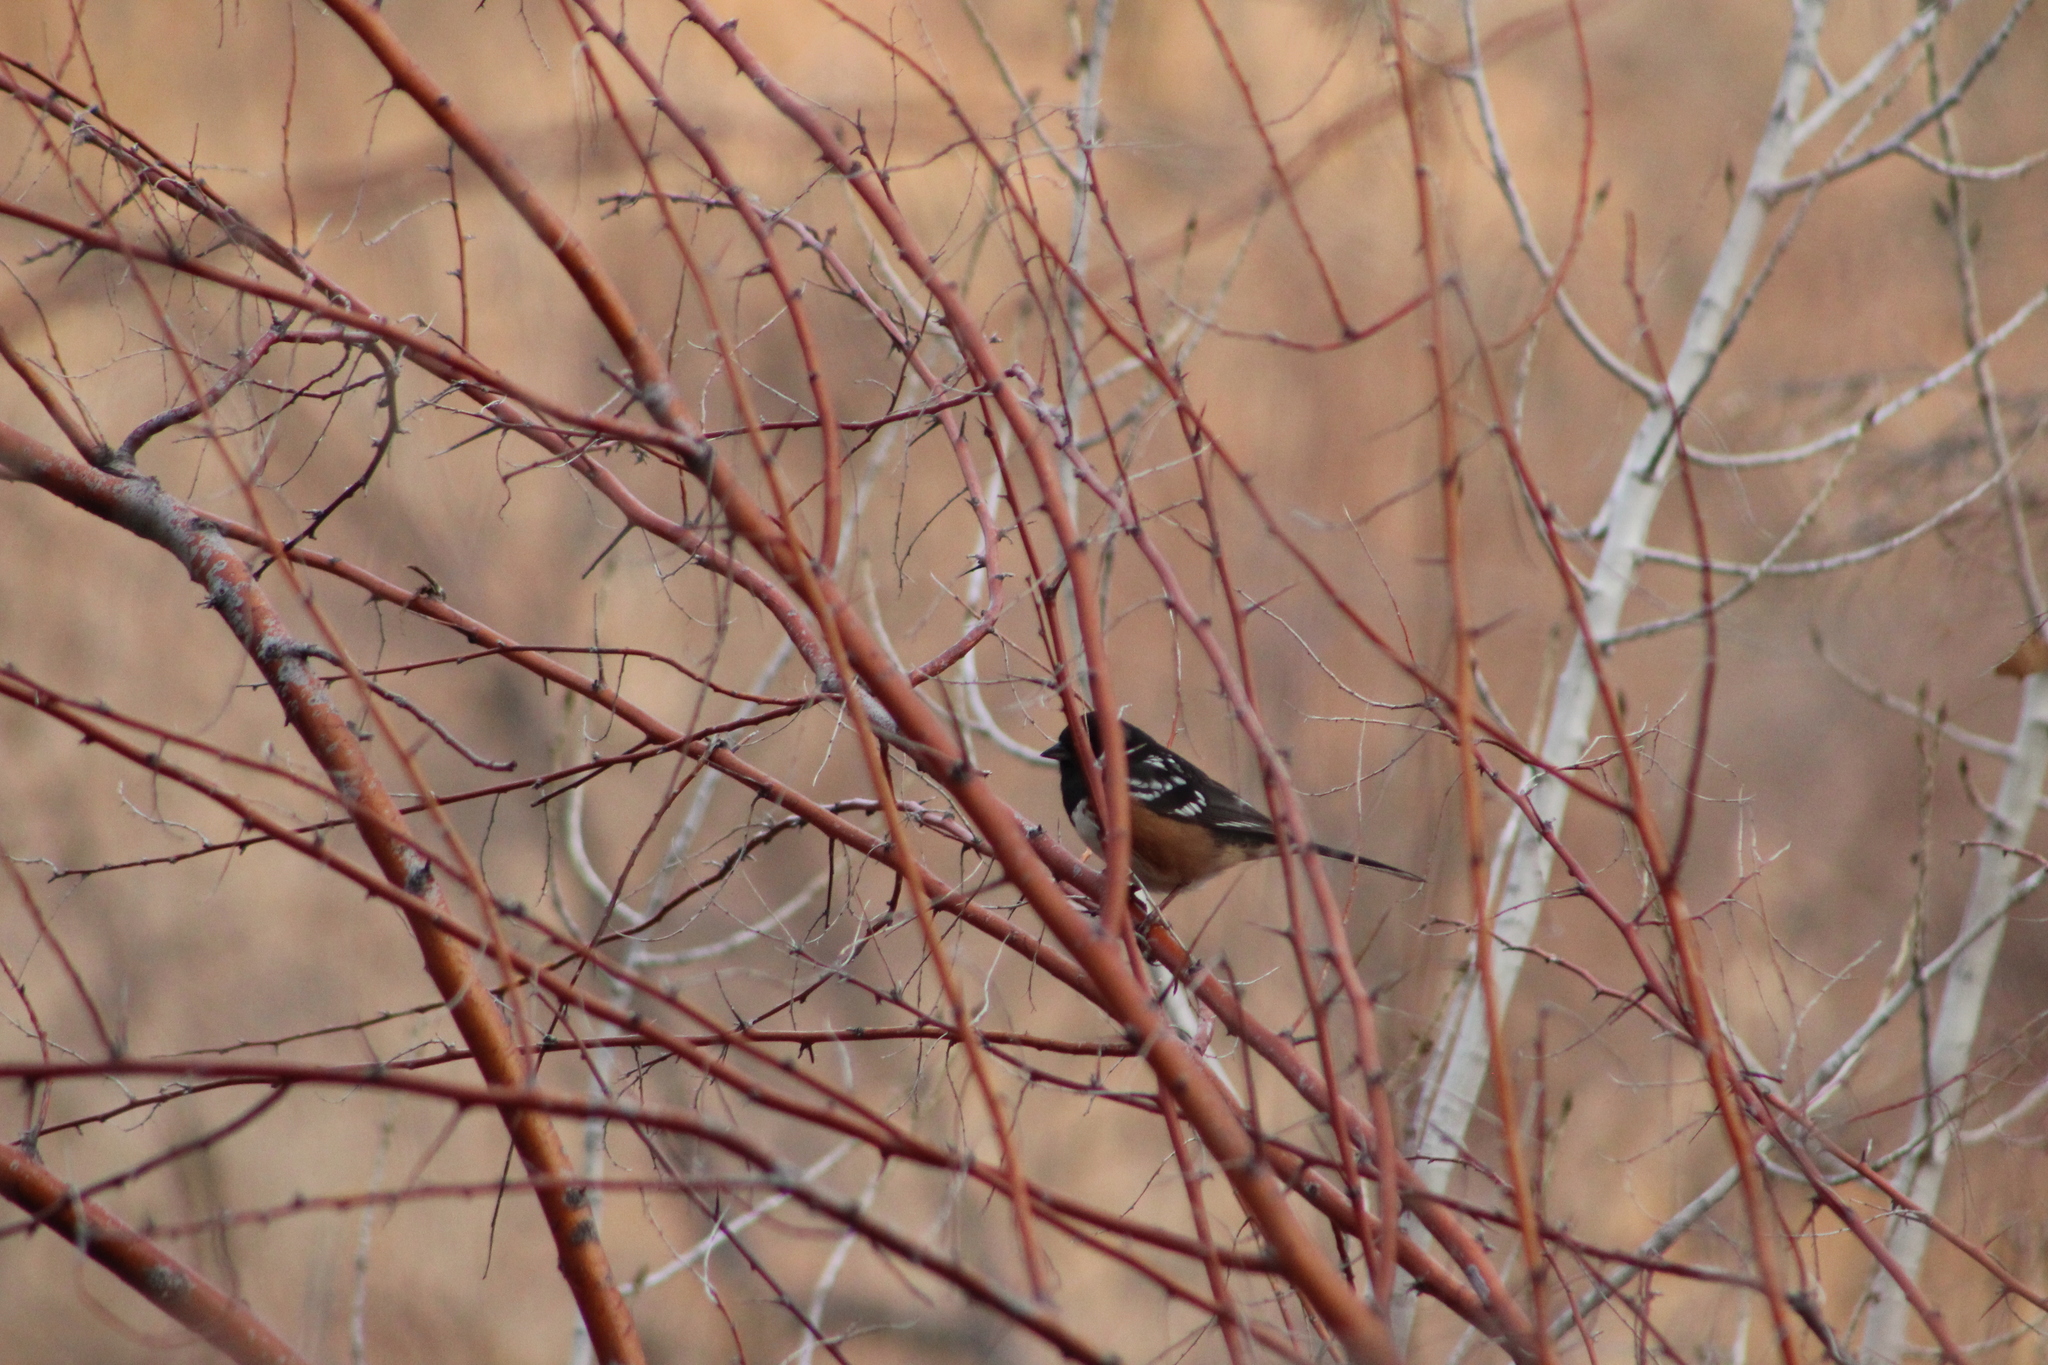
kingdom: Animalia
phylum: Chordata
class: Aves
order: Passeriformes
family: Passerellidae
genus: Pipilo
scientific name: Pipilo maculatus
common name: Spotted towhee
